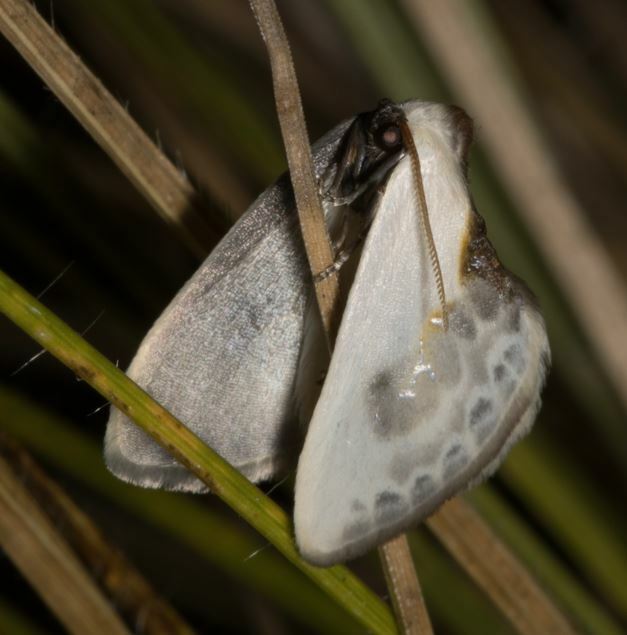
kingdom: Animalia
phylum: Arthropoda
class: Insecta
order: Lepidoptera
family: Drepanidae
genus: Cilix
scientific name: Cilix glaucata
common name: Chinese character
